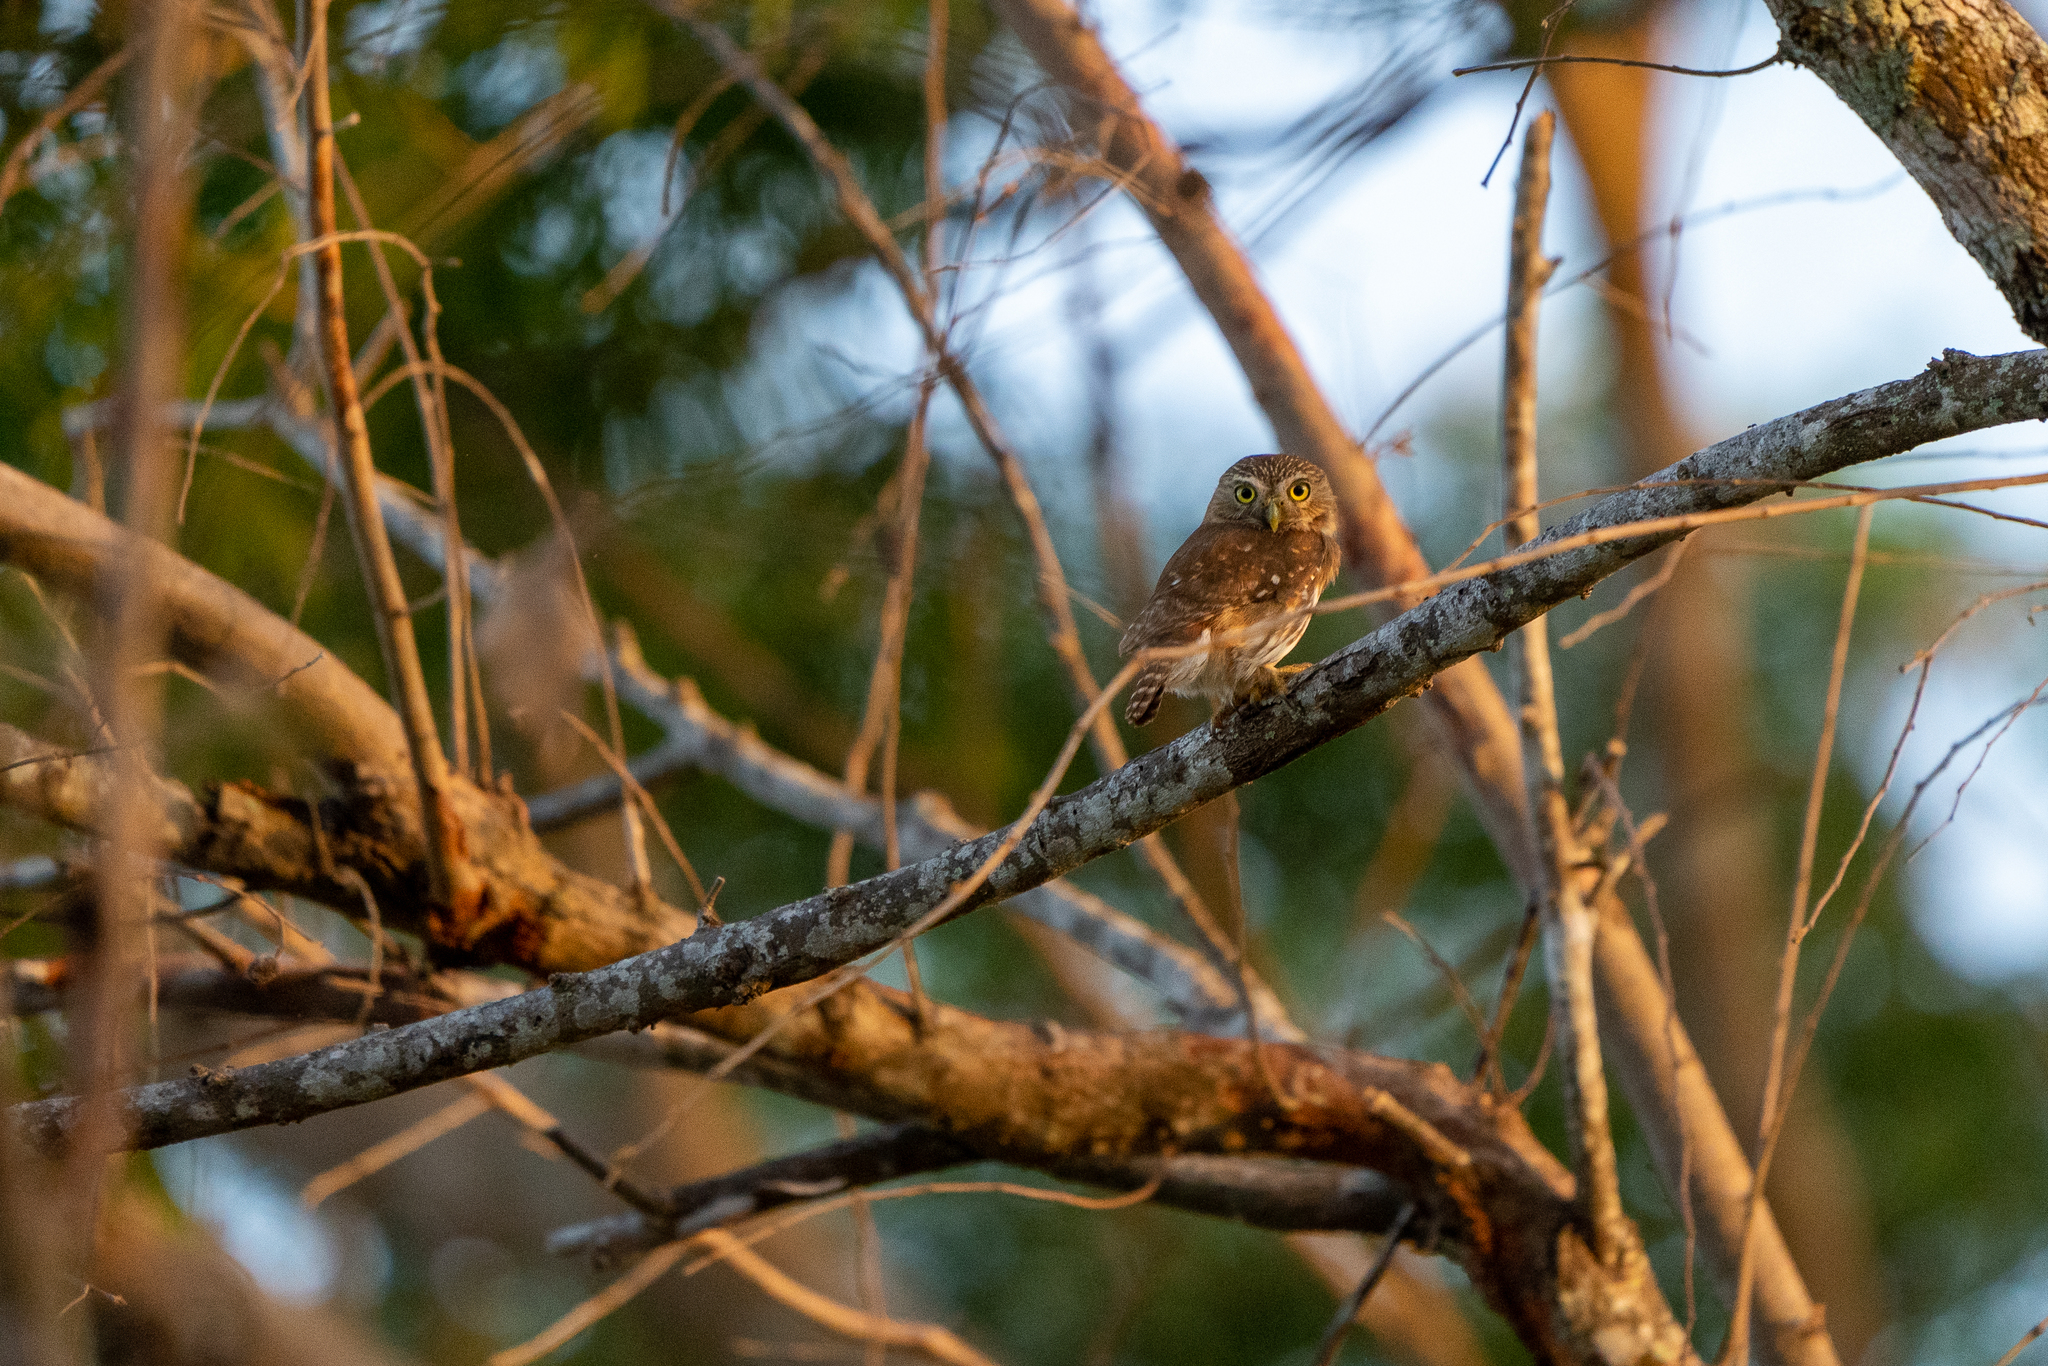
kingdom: Animalia
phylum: Chordata
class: Aves
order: Strigiformes
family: Strigidae
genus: Glaucidium
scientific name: Glaucidium brasilianum
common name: Ferruginous pygmy-owl
